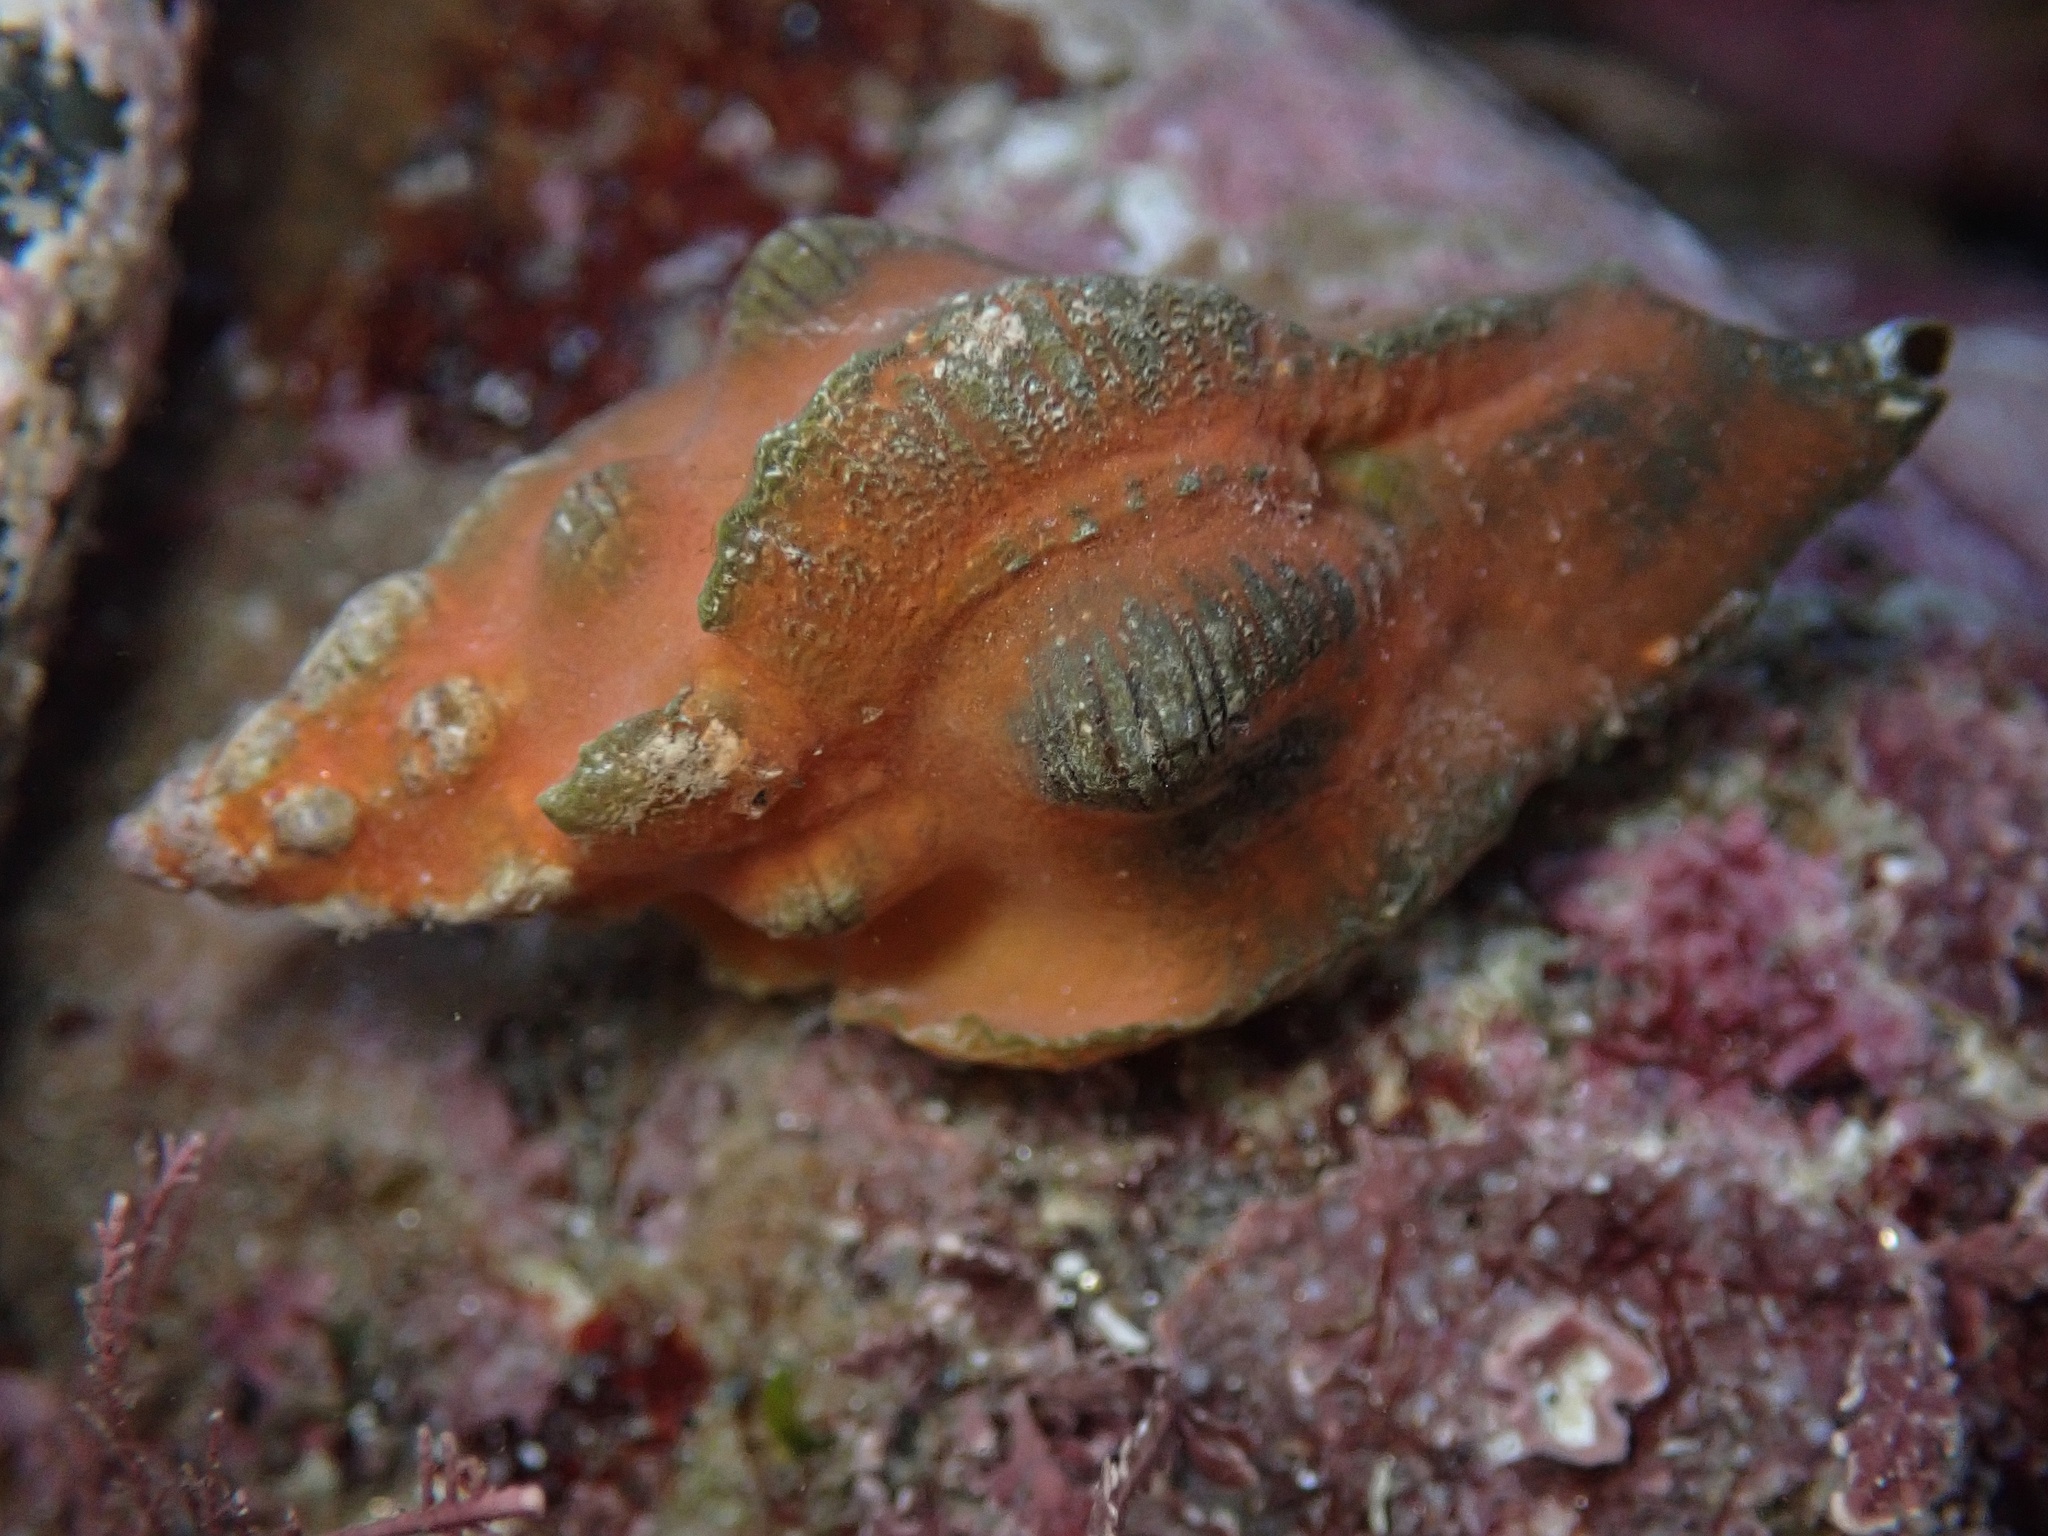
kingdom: Animalia
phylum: Mollusca
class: Gastropoda
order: Neogastropoda
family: Muricidae
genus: Pteropurpura
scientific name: Pteropurpura festiva
